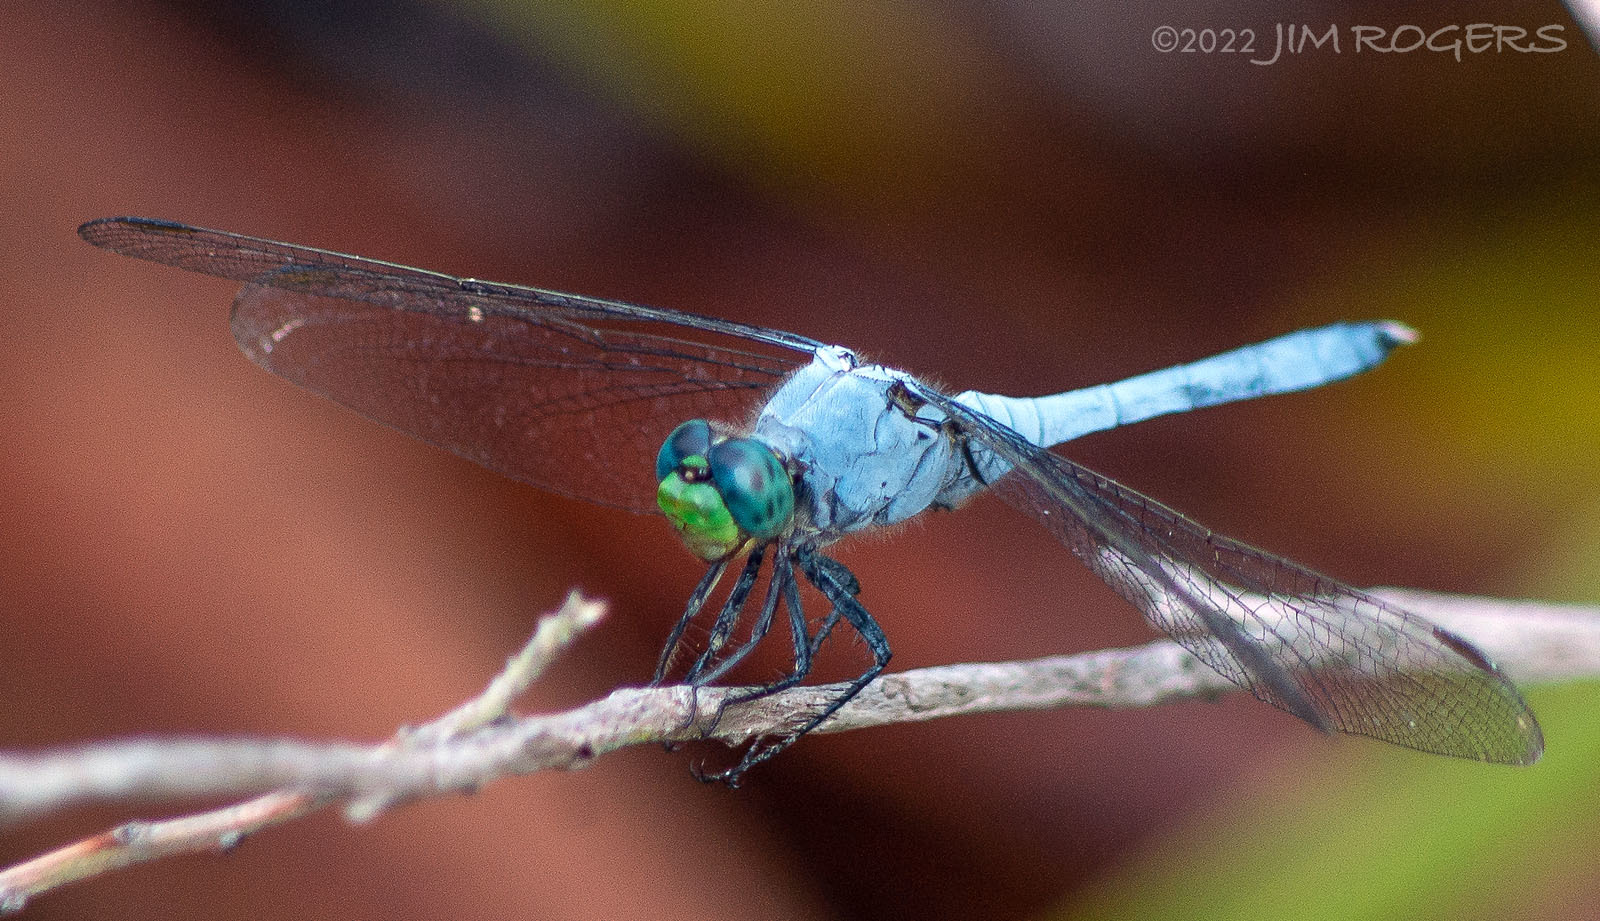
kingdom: Animalia
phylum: Arthropoda
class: Insecta
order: Odonata
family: Libellulidae
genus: Erythemis
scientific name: Erythemis simplicicollis
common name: Eastern pondhawk
